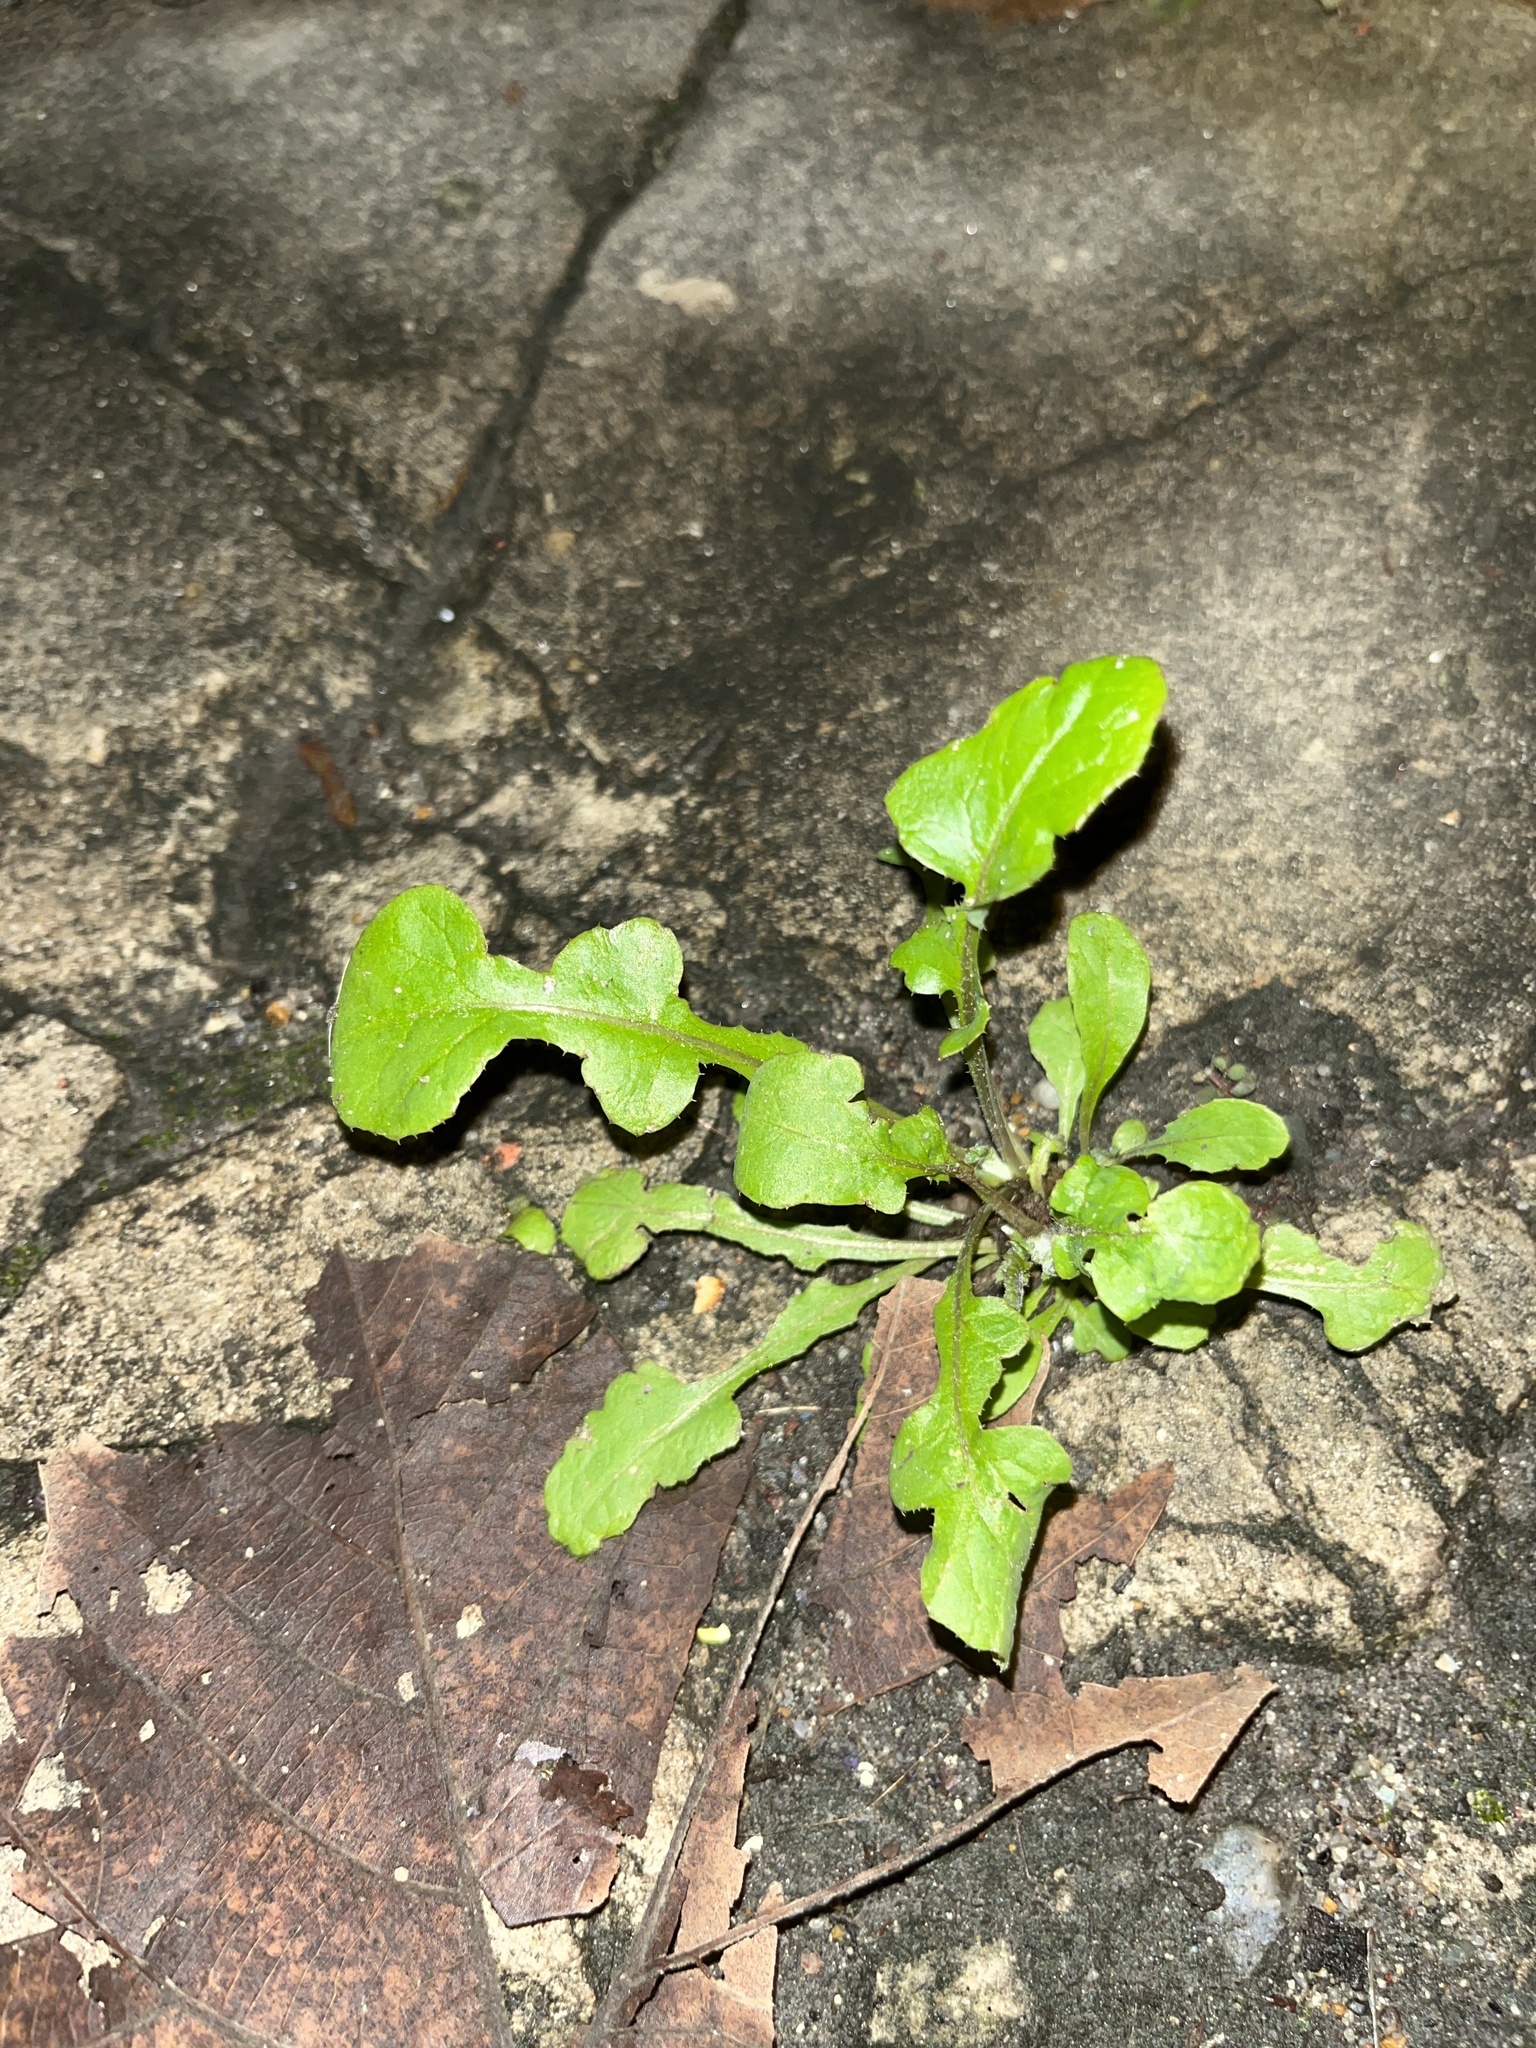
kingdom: Plantae
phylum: Tracheophyta
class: Magnoliopsida
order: Asterales
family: Asteraceae
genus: Youngia
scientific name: Youngia japonica
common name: Oriental false hawksbeard
